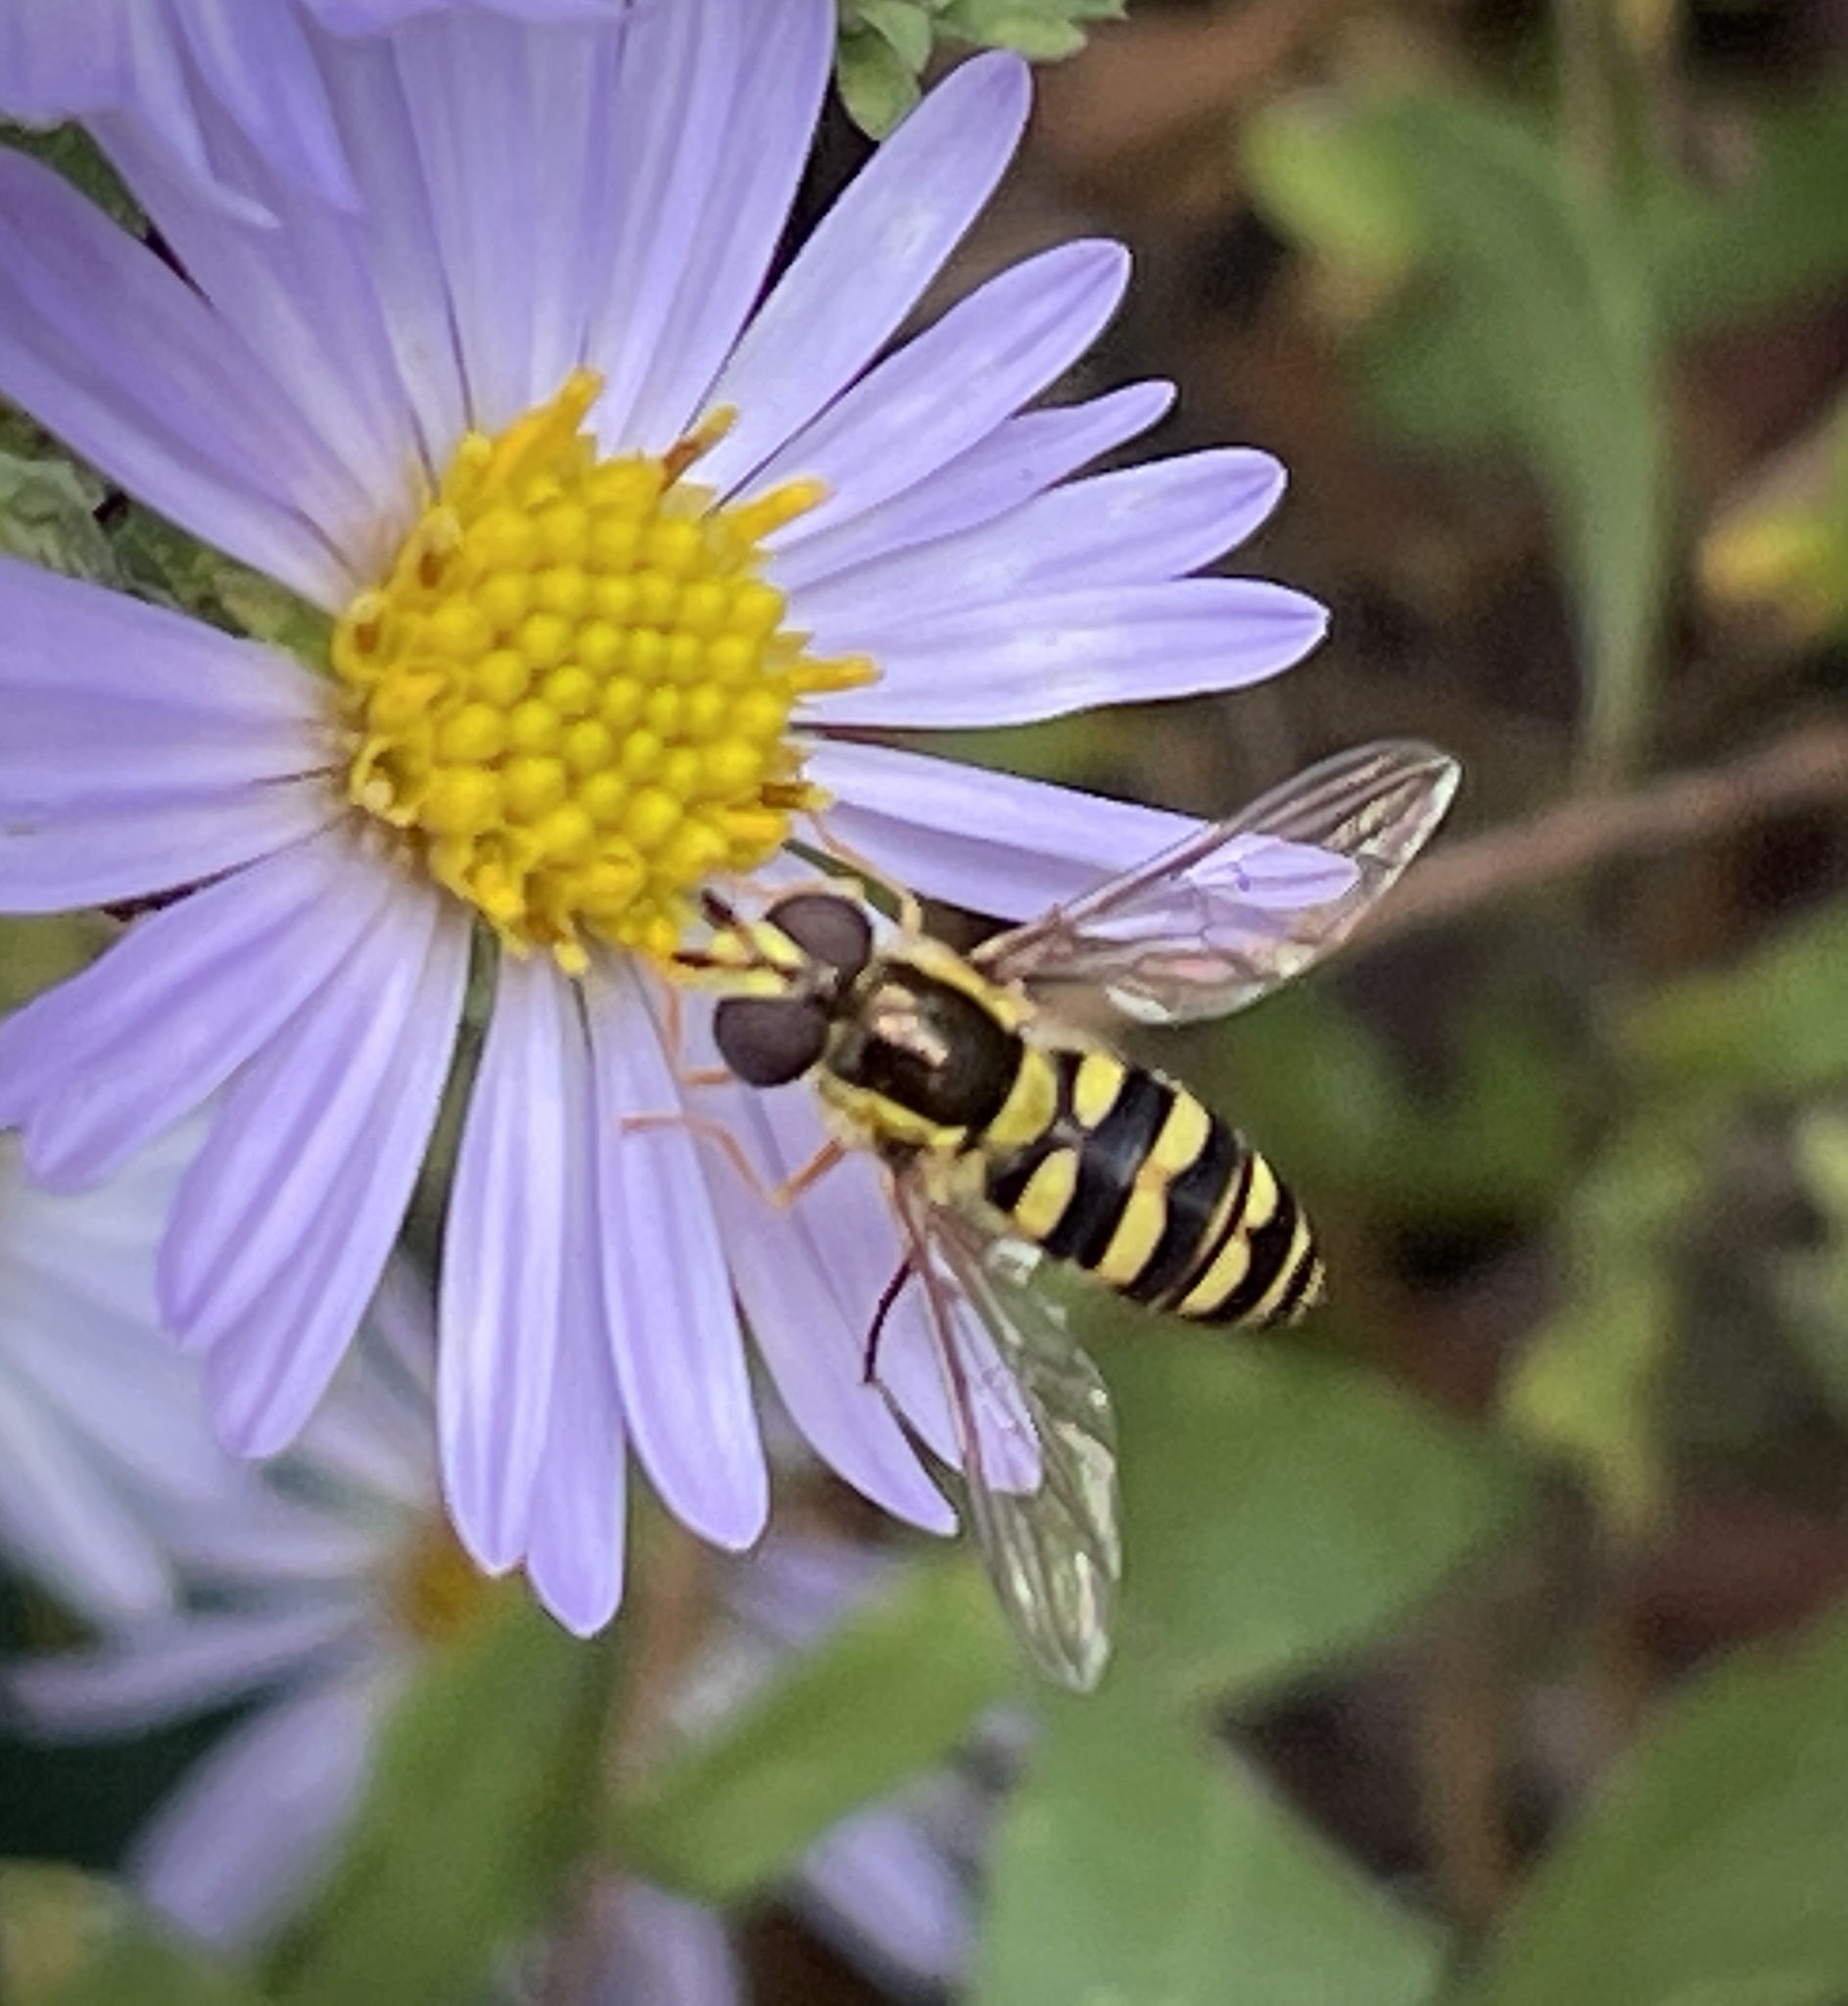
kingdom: Animalia
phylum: Arthropoda
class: Insecta
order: Diptera
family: Syrphidae
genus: Epistrophella
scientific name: Epistrophella emarginata
